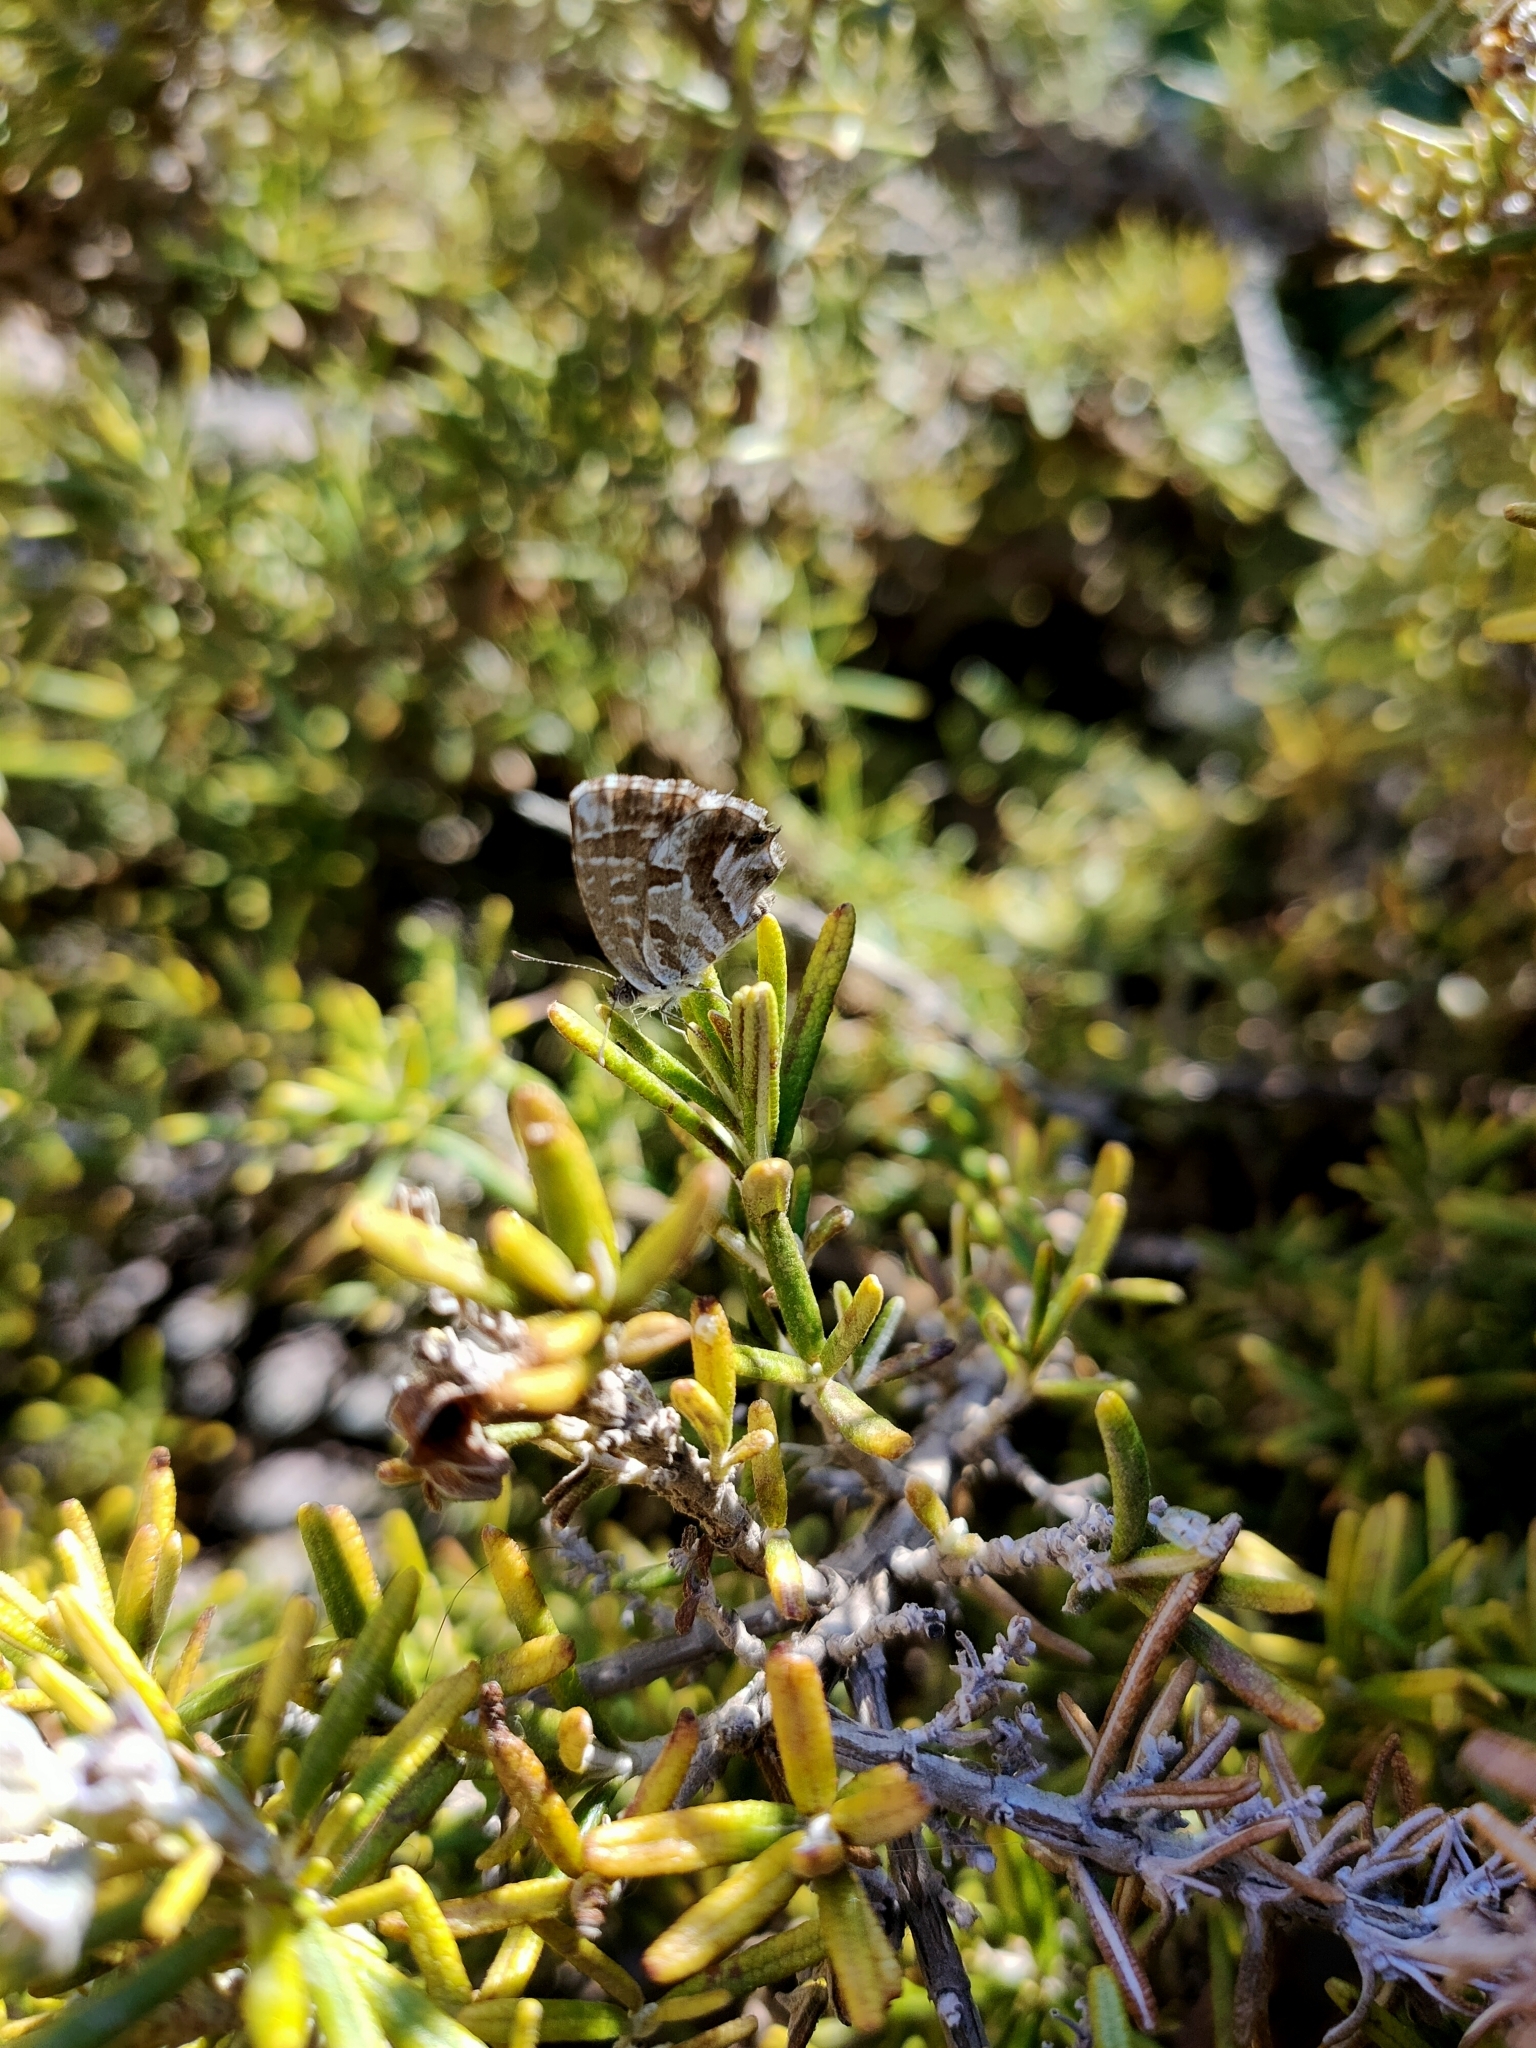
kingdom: Animalia
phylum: Arthropoda
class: Insecta
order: Lepidoptera
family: Lycaenidae
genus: Cacyreus
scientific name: Cacyreus marshalli
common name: Geranium bronze
